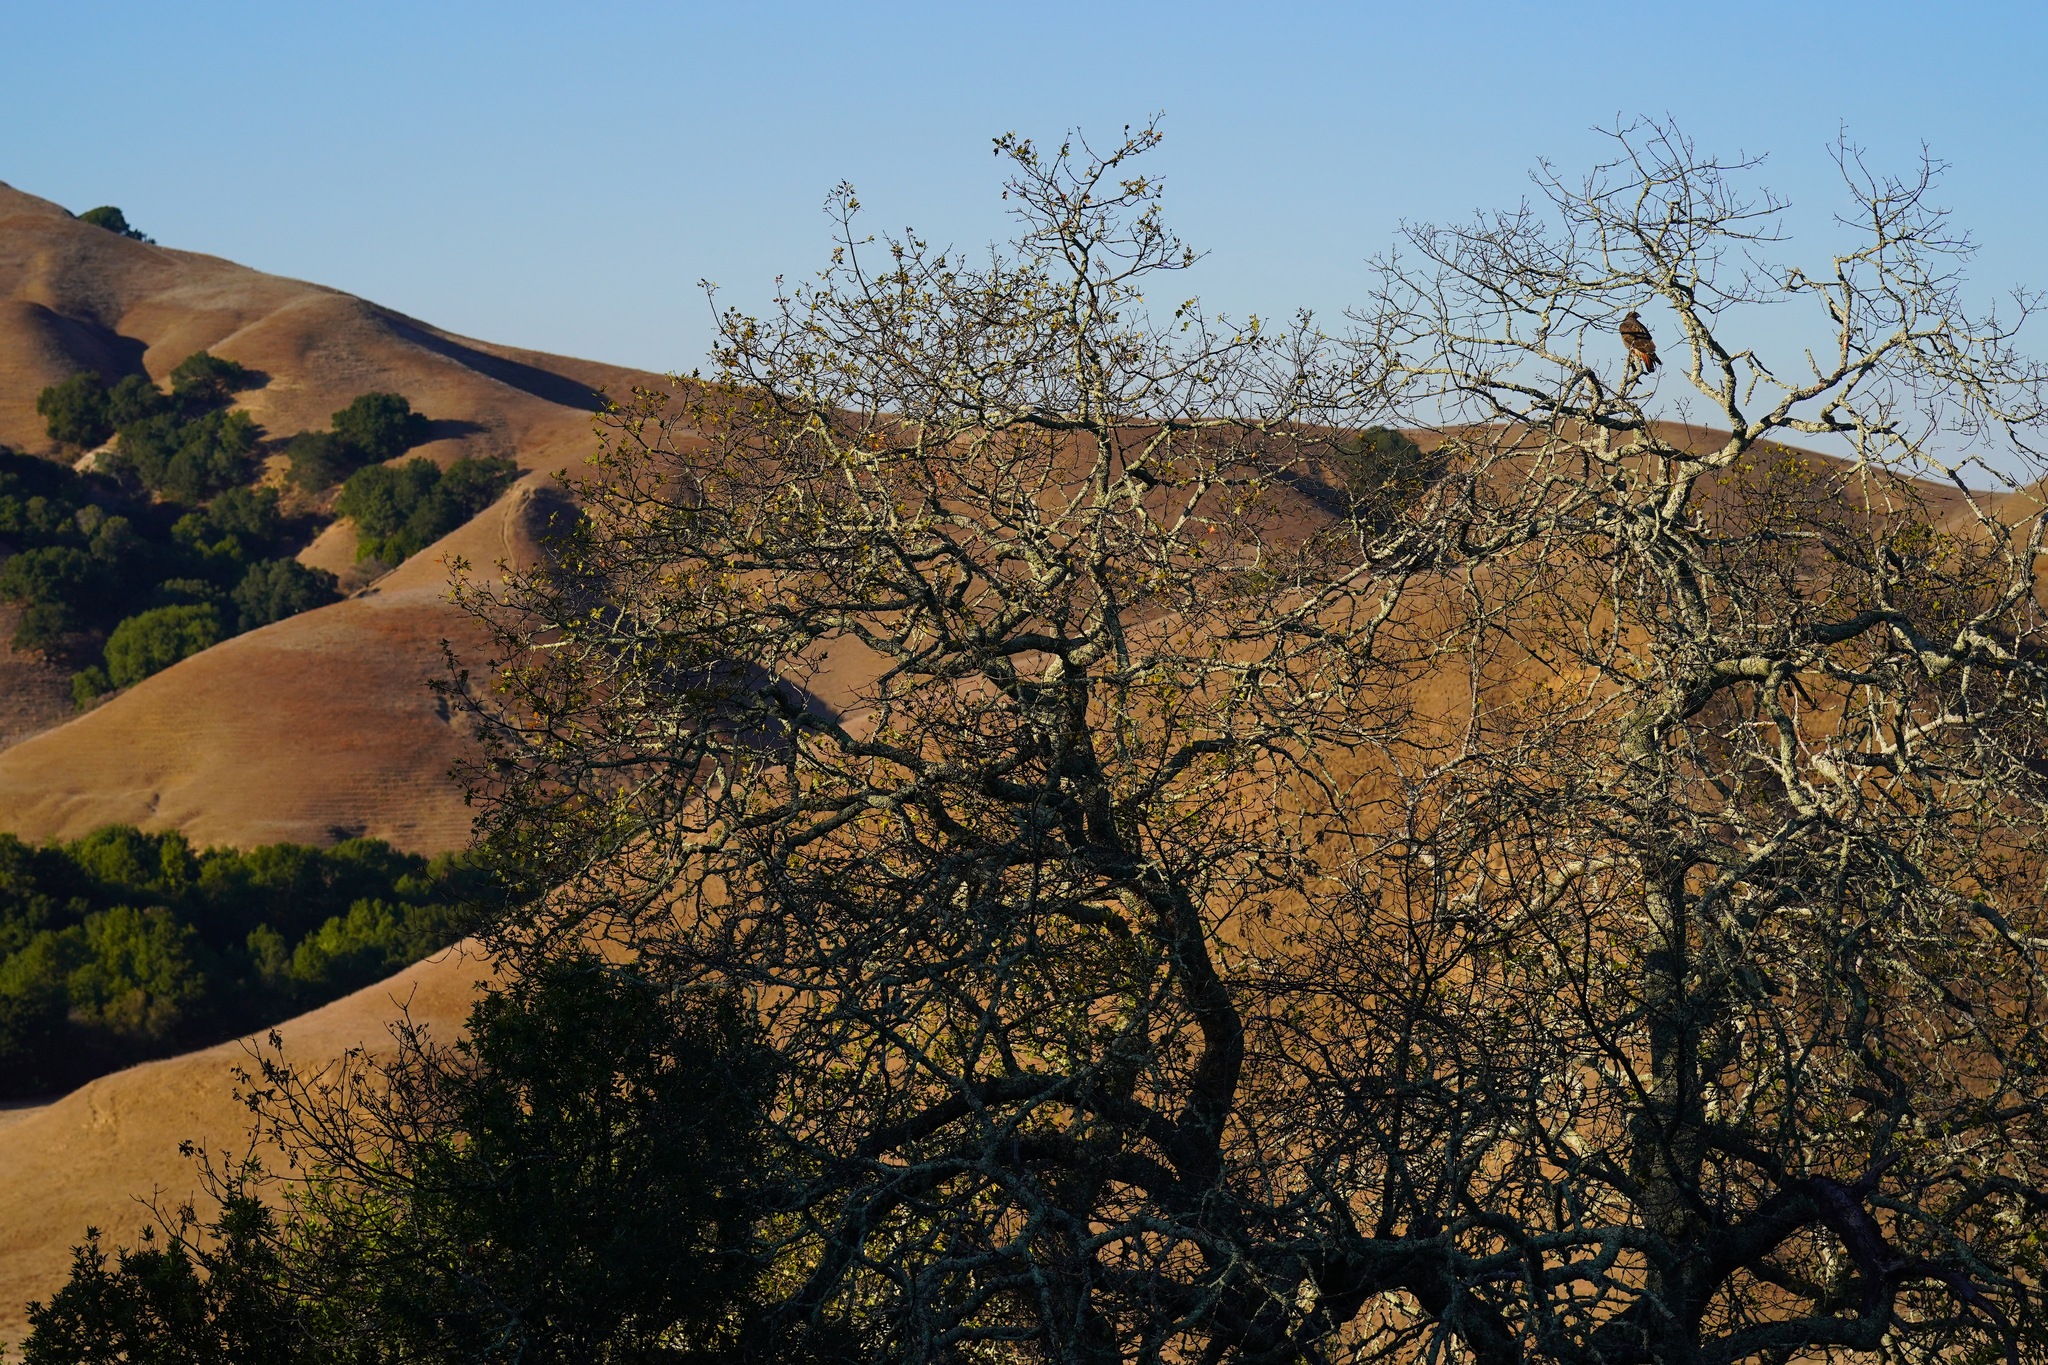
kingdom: Animalia
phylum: Chordata
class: Aves
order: Accipitriformes
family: Accipitridae
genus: Buteo
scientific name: Buteo jamaicensis
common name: Red-tailed hawk
